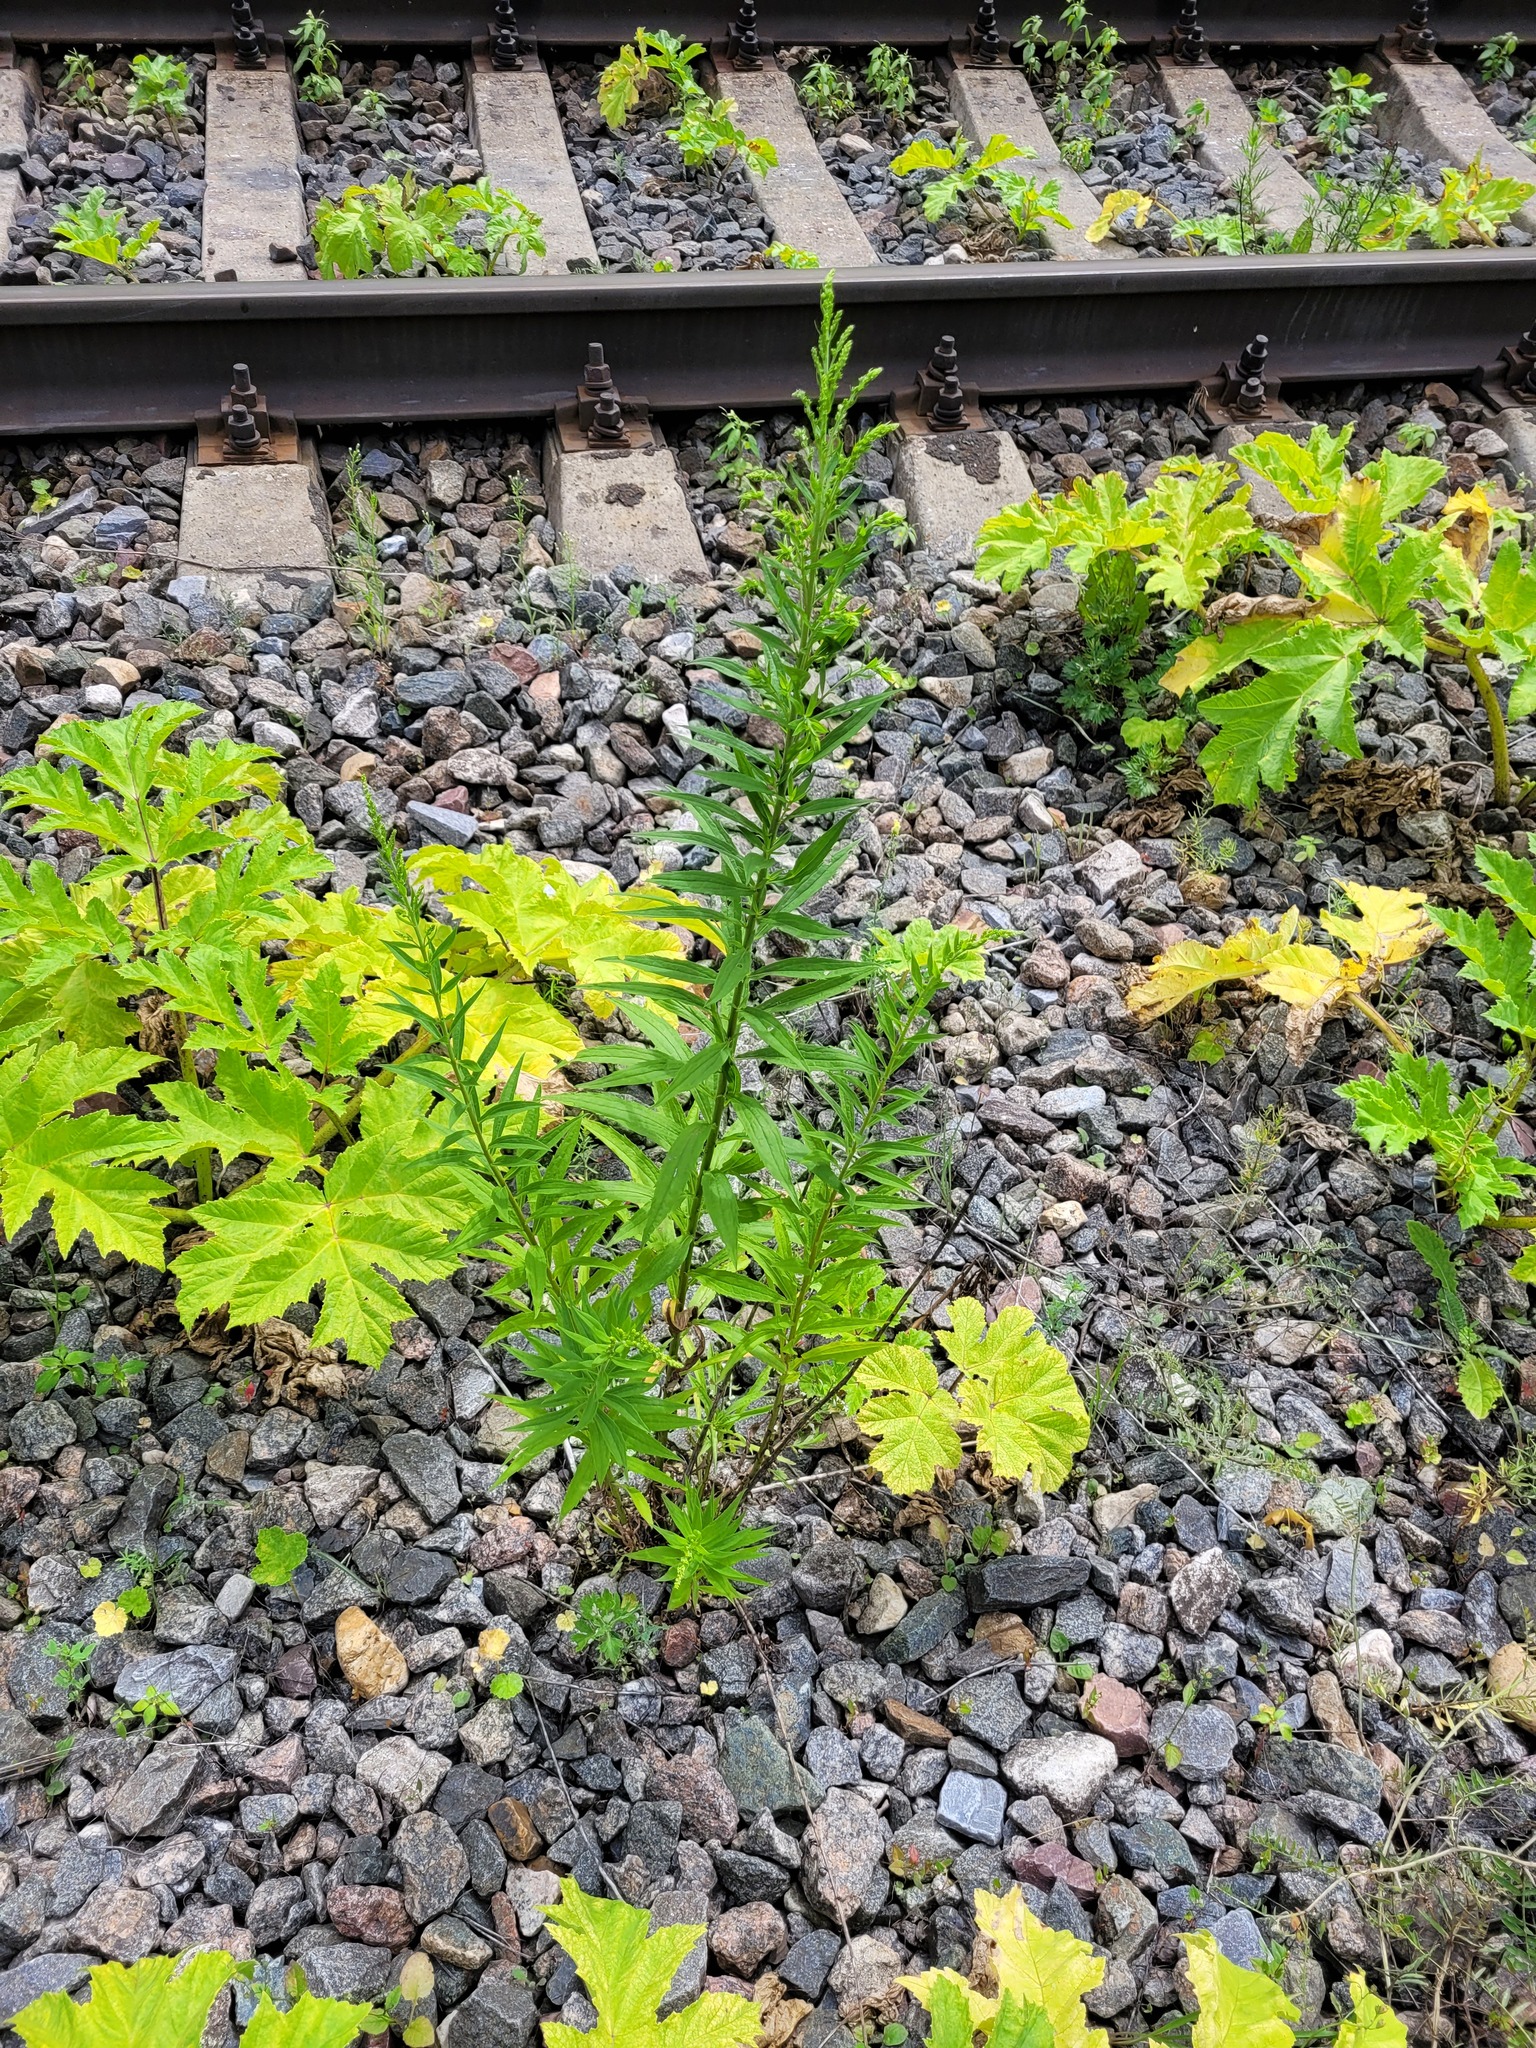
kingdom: Plantae
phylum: Tracheophyta
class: Magnoliopsida
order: Asterales
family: Asteraceae
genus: Solidago
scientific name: Solidago canadensis
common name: Canada goldenrod
